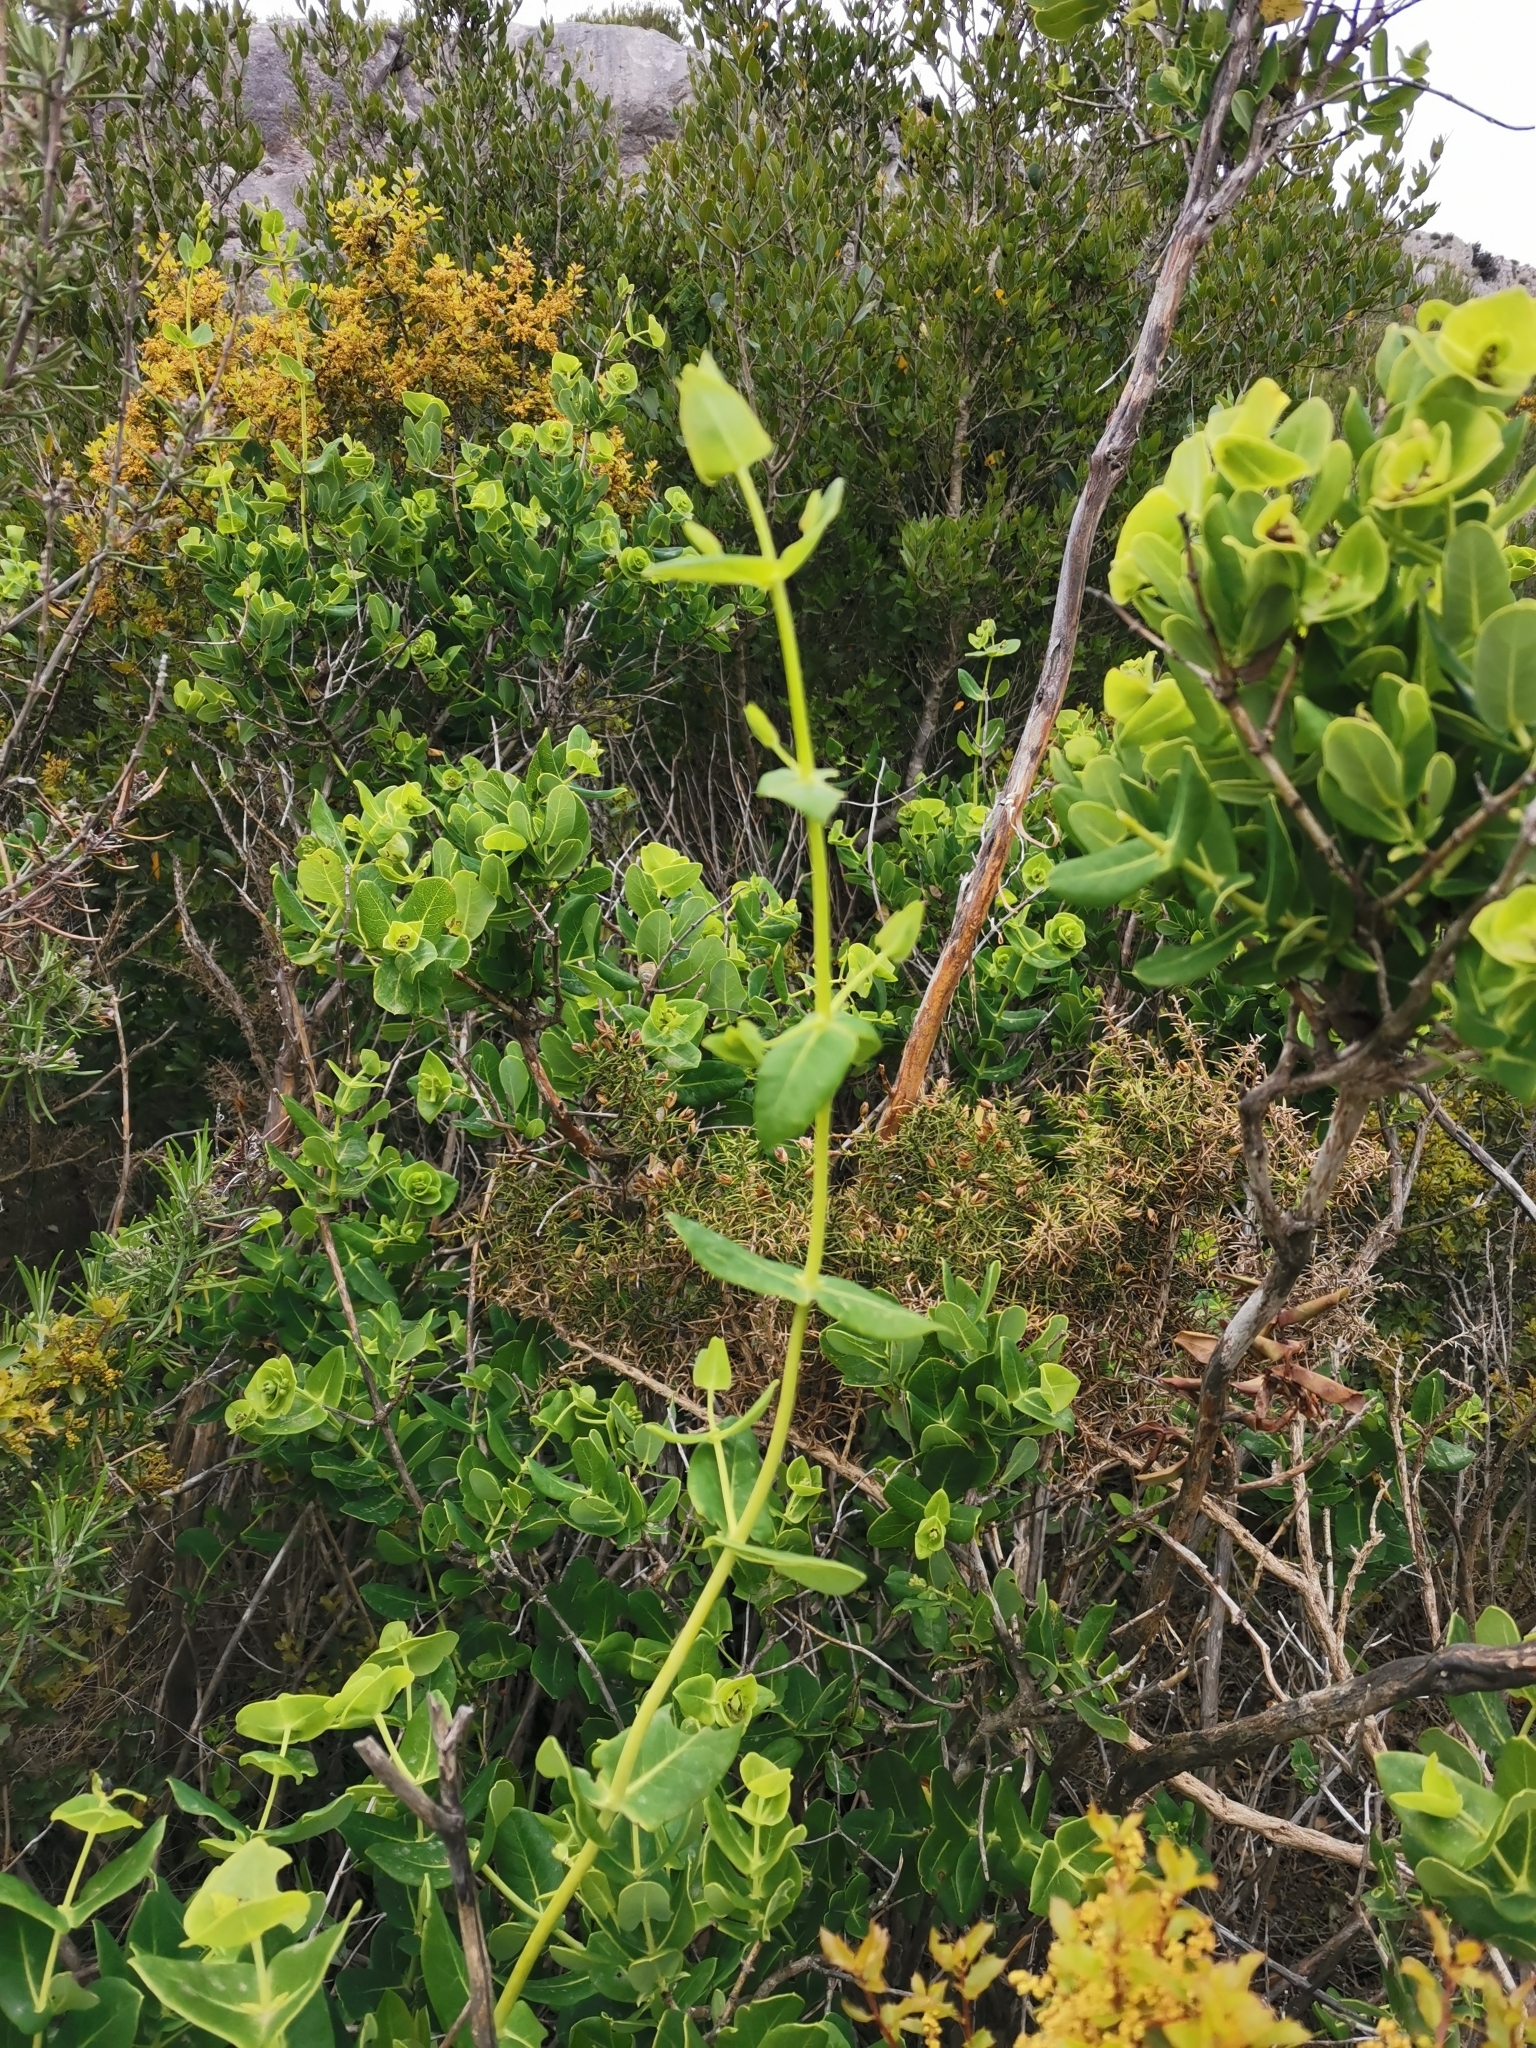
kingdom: Plantae
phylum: Tracheophyta
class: Magnoliopsida
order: Dipsacales
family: Caprifoliaceae
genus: Lonicera
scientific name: Lonicera implexa
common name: Minorca honeysuckle
